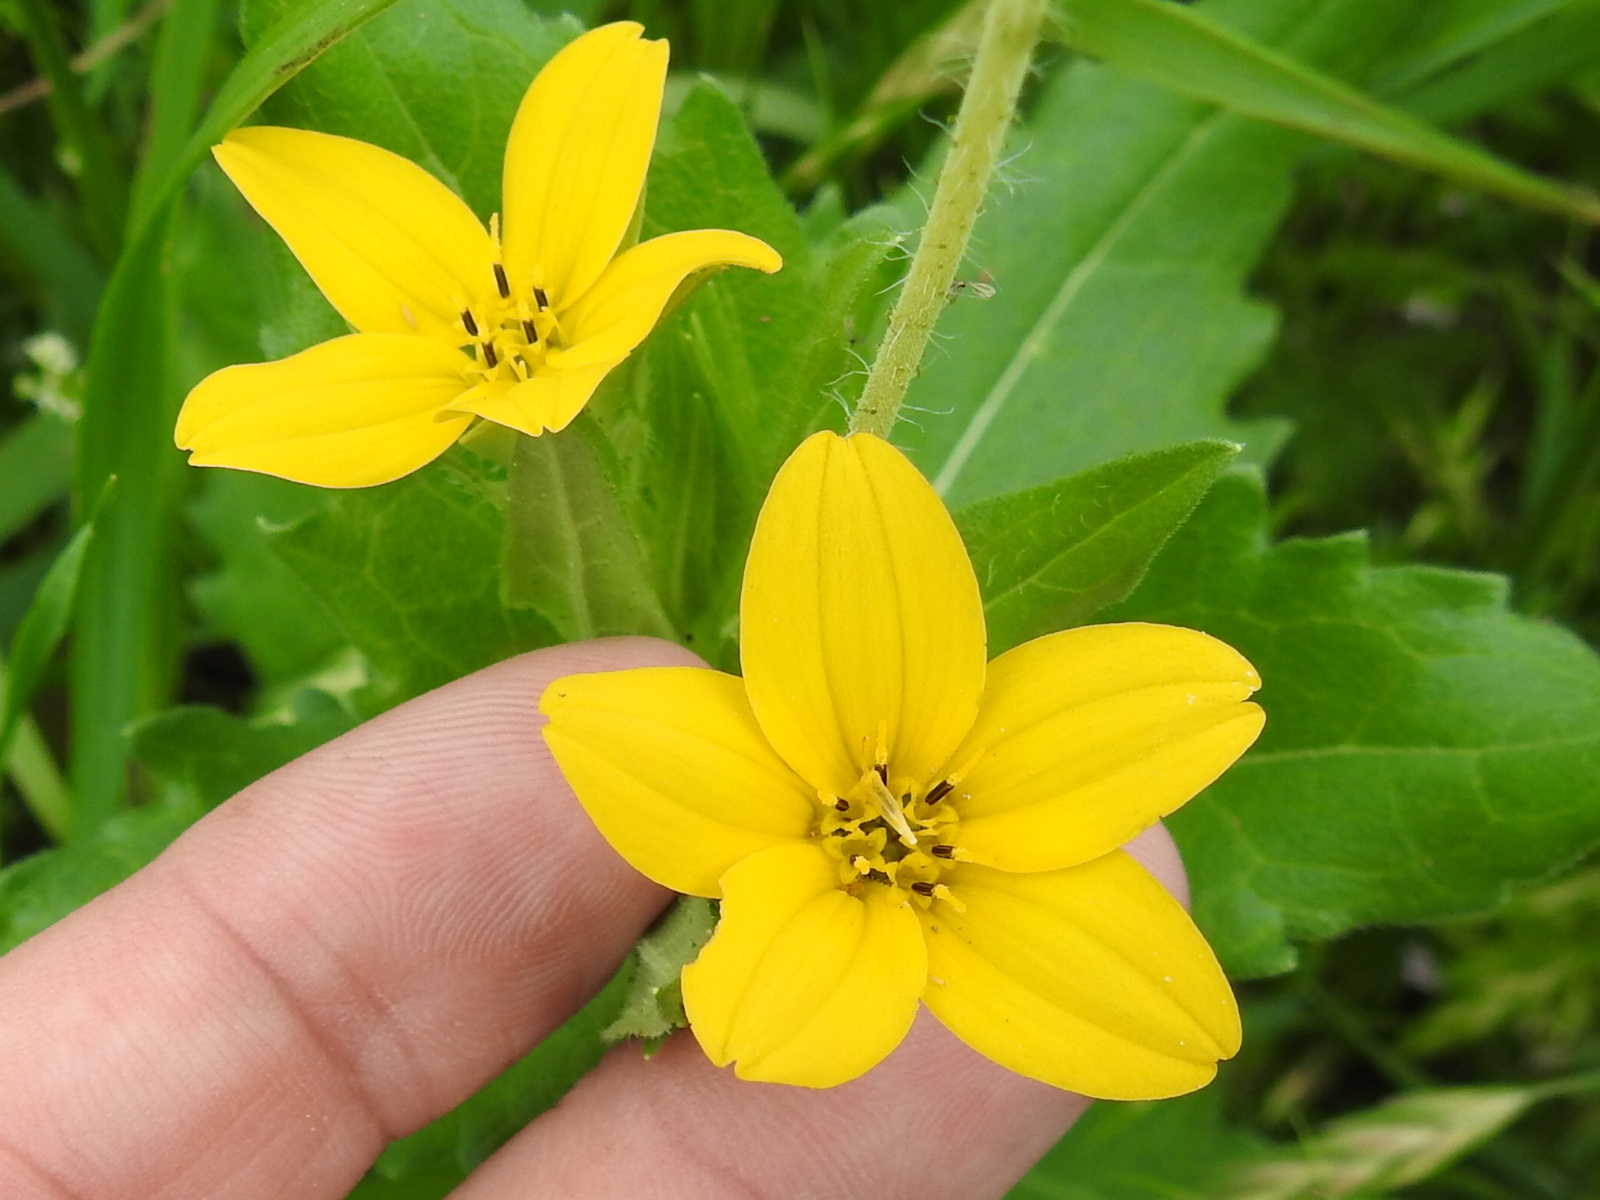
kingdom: Plantae
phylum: Tracheophyta
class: Magnoliopsida
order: Asterales
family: Asteraceae
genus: Lindheimera
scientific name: Lindheimera texana
